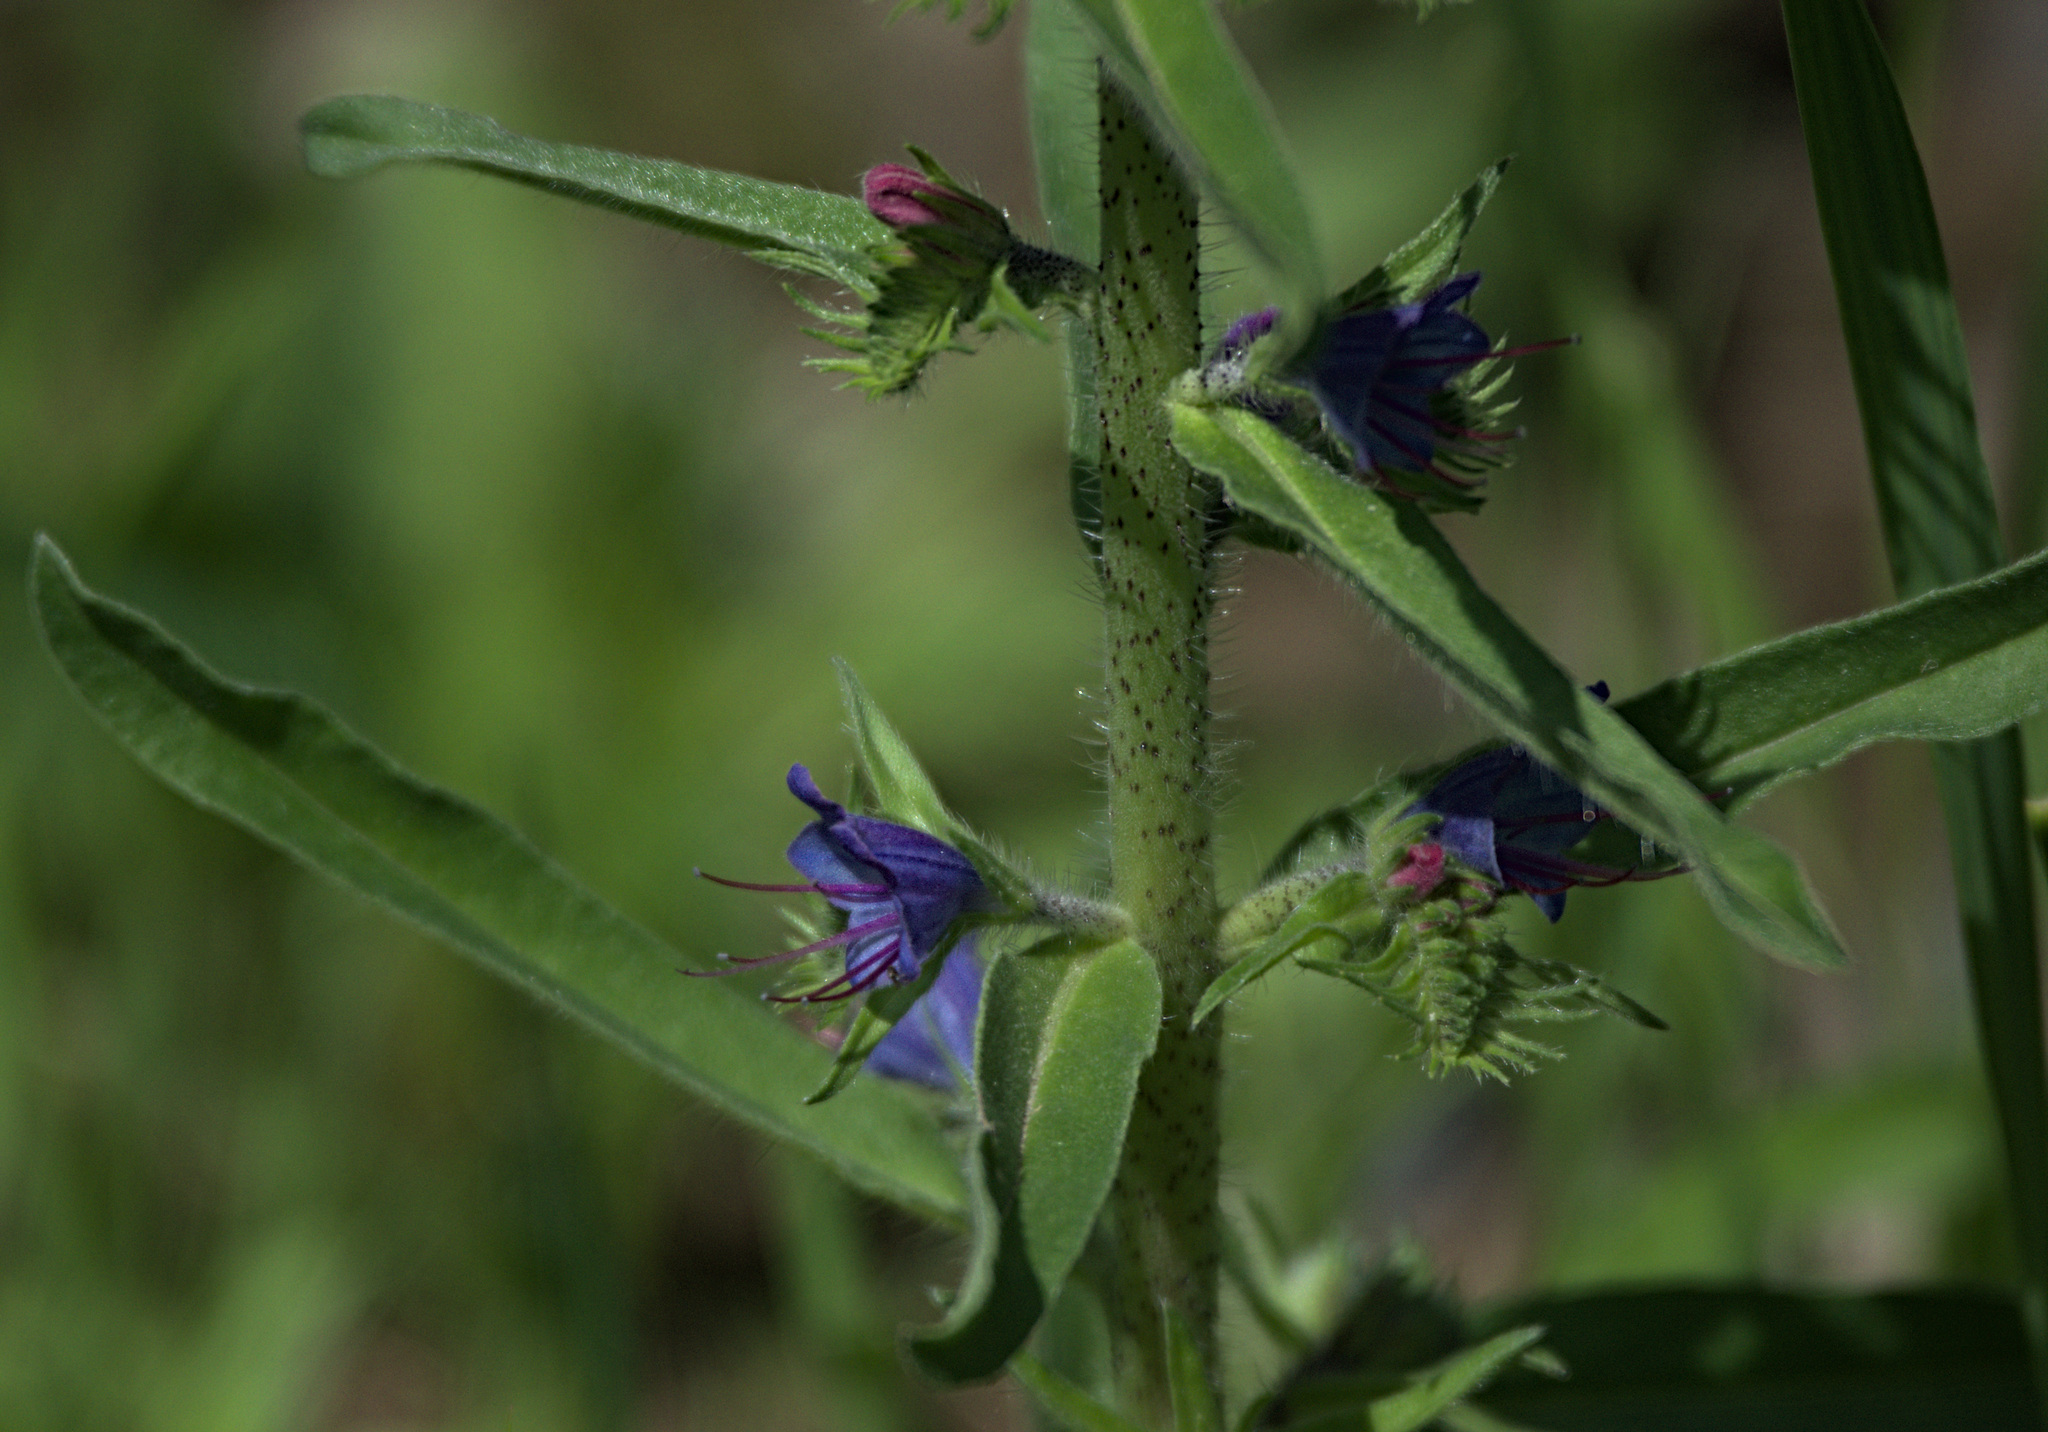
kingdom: Plantae
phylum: Tracheophyta
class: Magnoliopsida
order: Boraginales
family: Boraginaceae
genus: Echium
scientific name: Echium vulgare
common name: Common viper's bugloss
